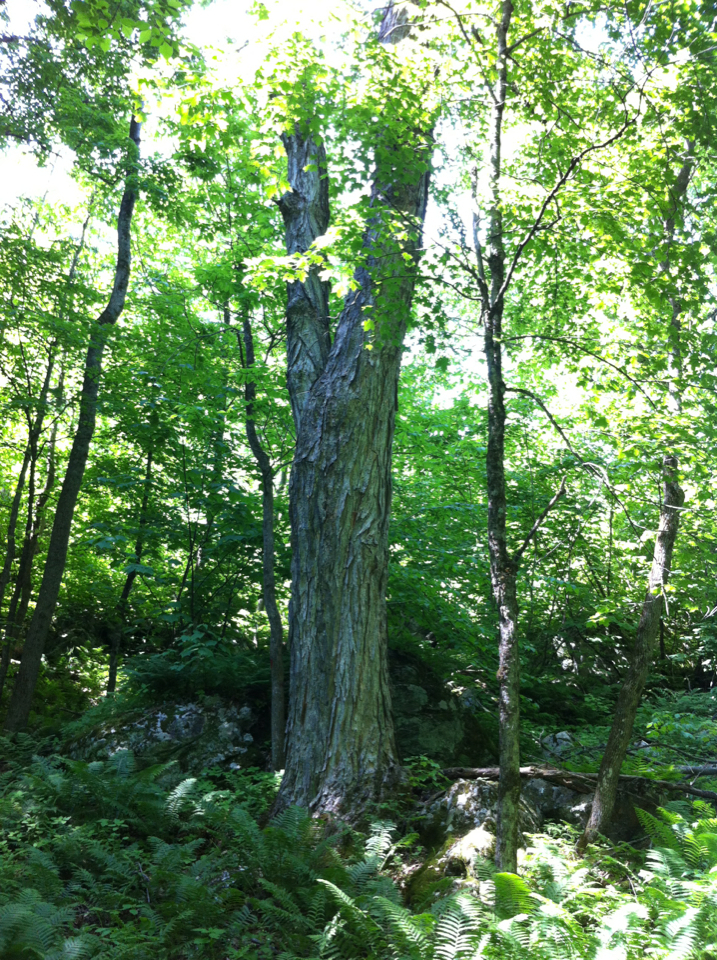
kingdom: Plantae
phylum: Tracheophyta
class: Magnoliopsida
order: Sapindales
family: Sapindaceae
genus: Acer
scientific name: Acer saccharum
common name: Sugar maple
